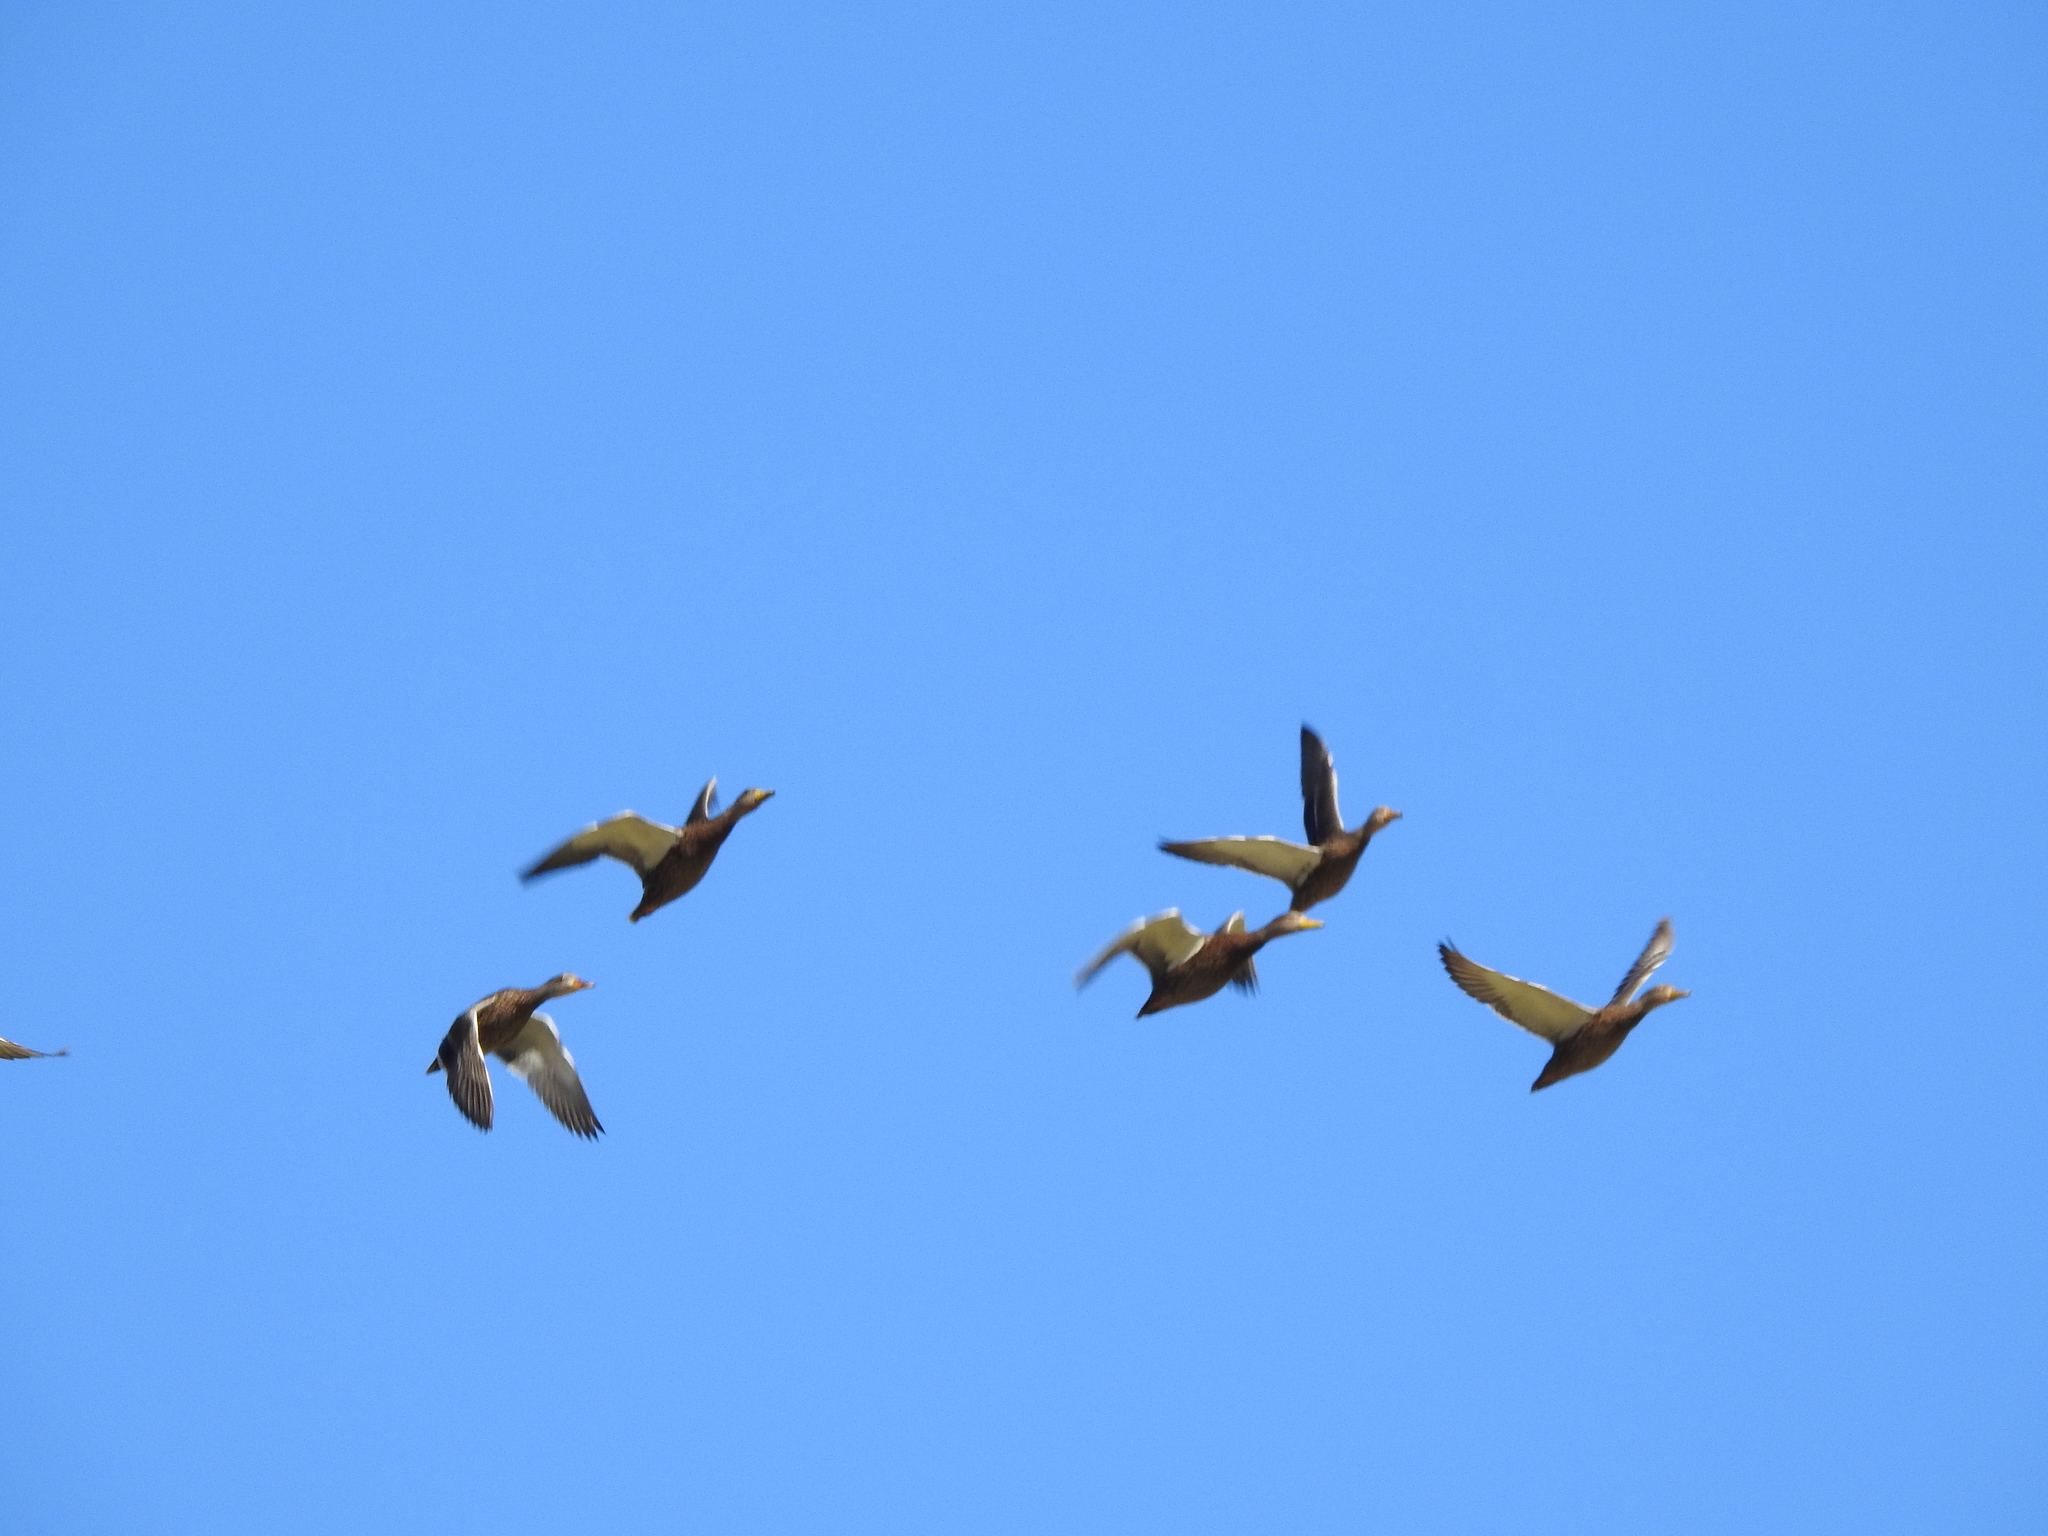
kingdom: Animalia
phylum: Chordata
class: Aves
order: Anseriformes
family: Anatidae
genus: Anas
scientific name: Anas platyrhynchos
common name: Mallard
